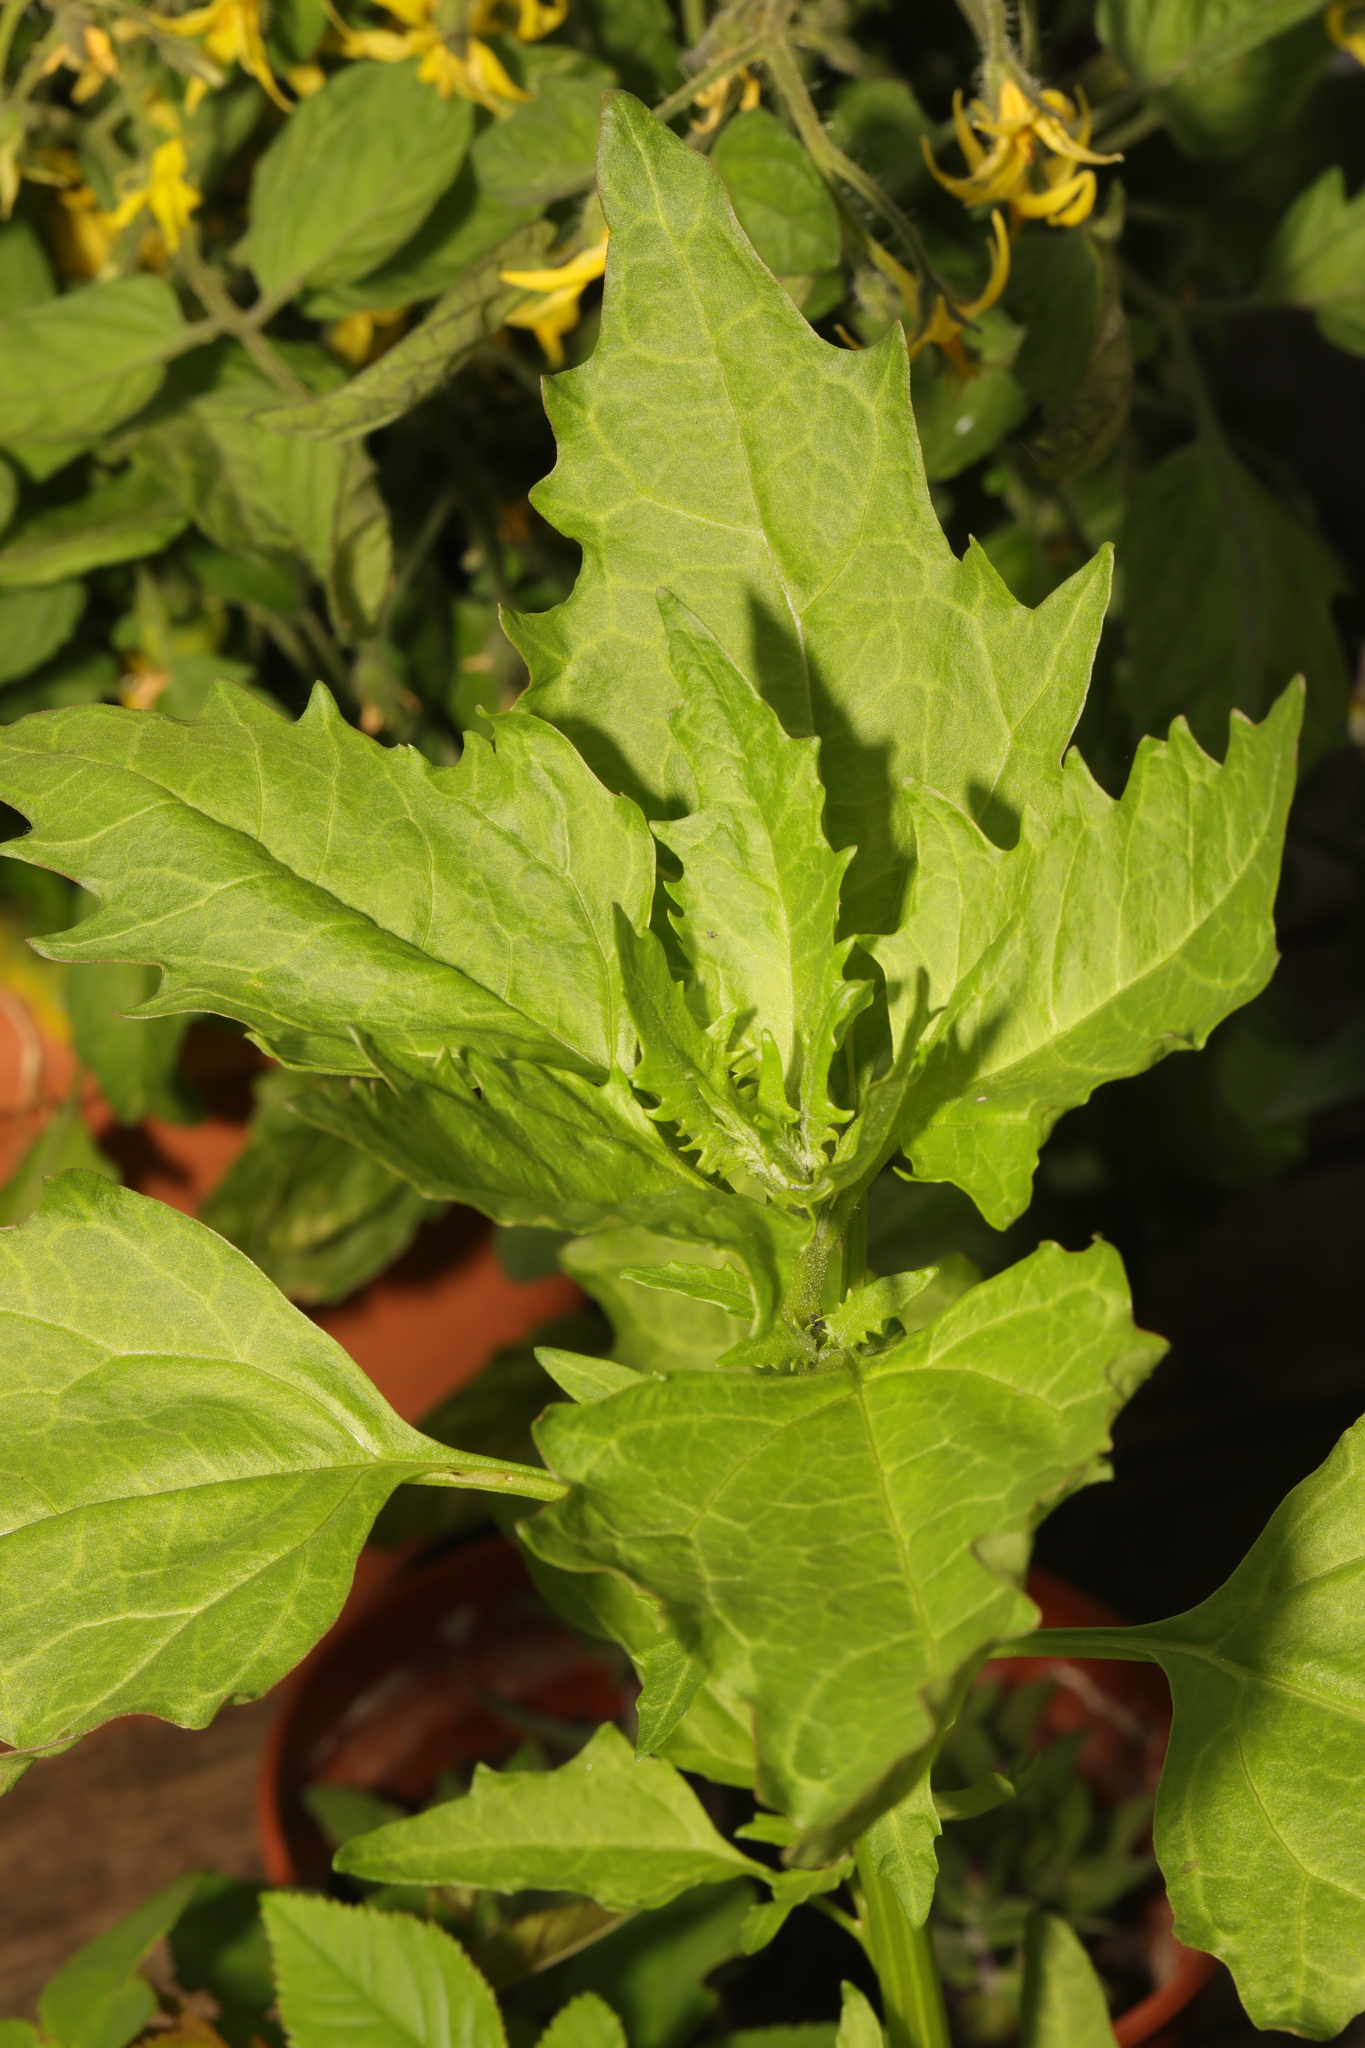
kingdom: Plantae
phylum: Tracheophyta
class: Magnoliopsida
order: Caryophyllales
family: Amaranthaceae
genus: Oxybasis
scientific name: Oxybasis rubra
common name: Red goosefoot
